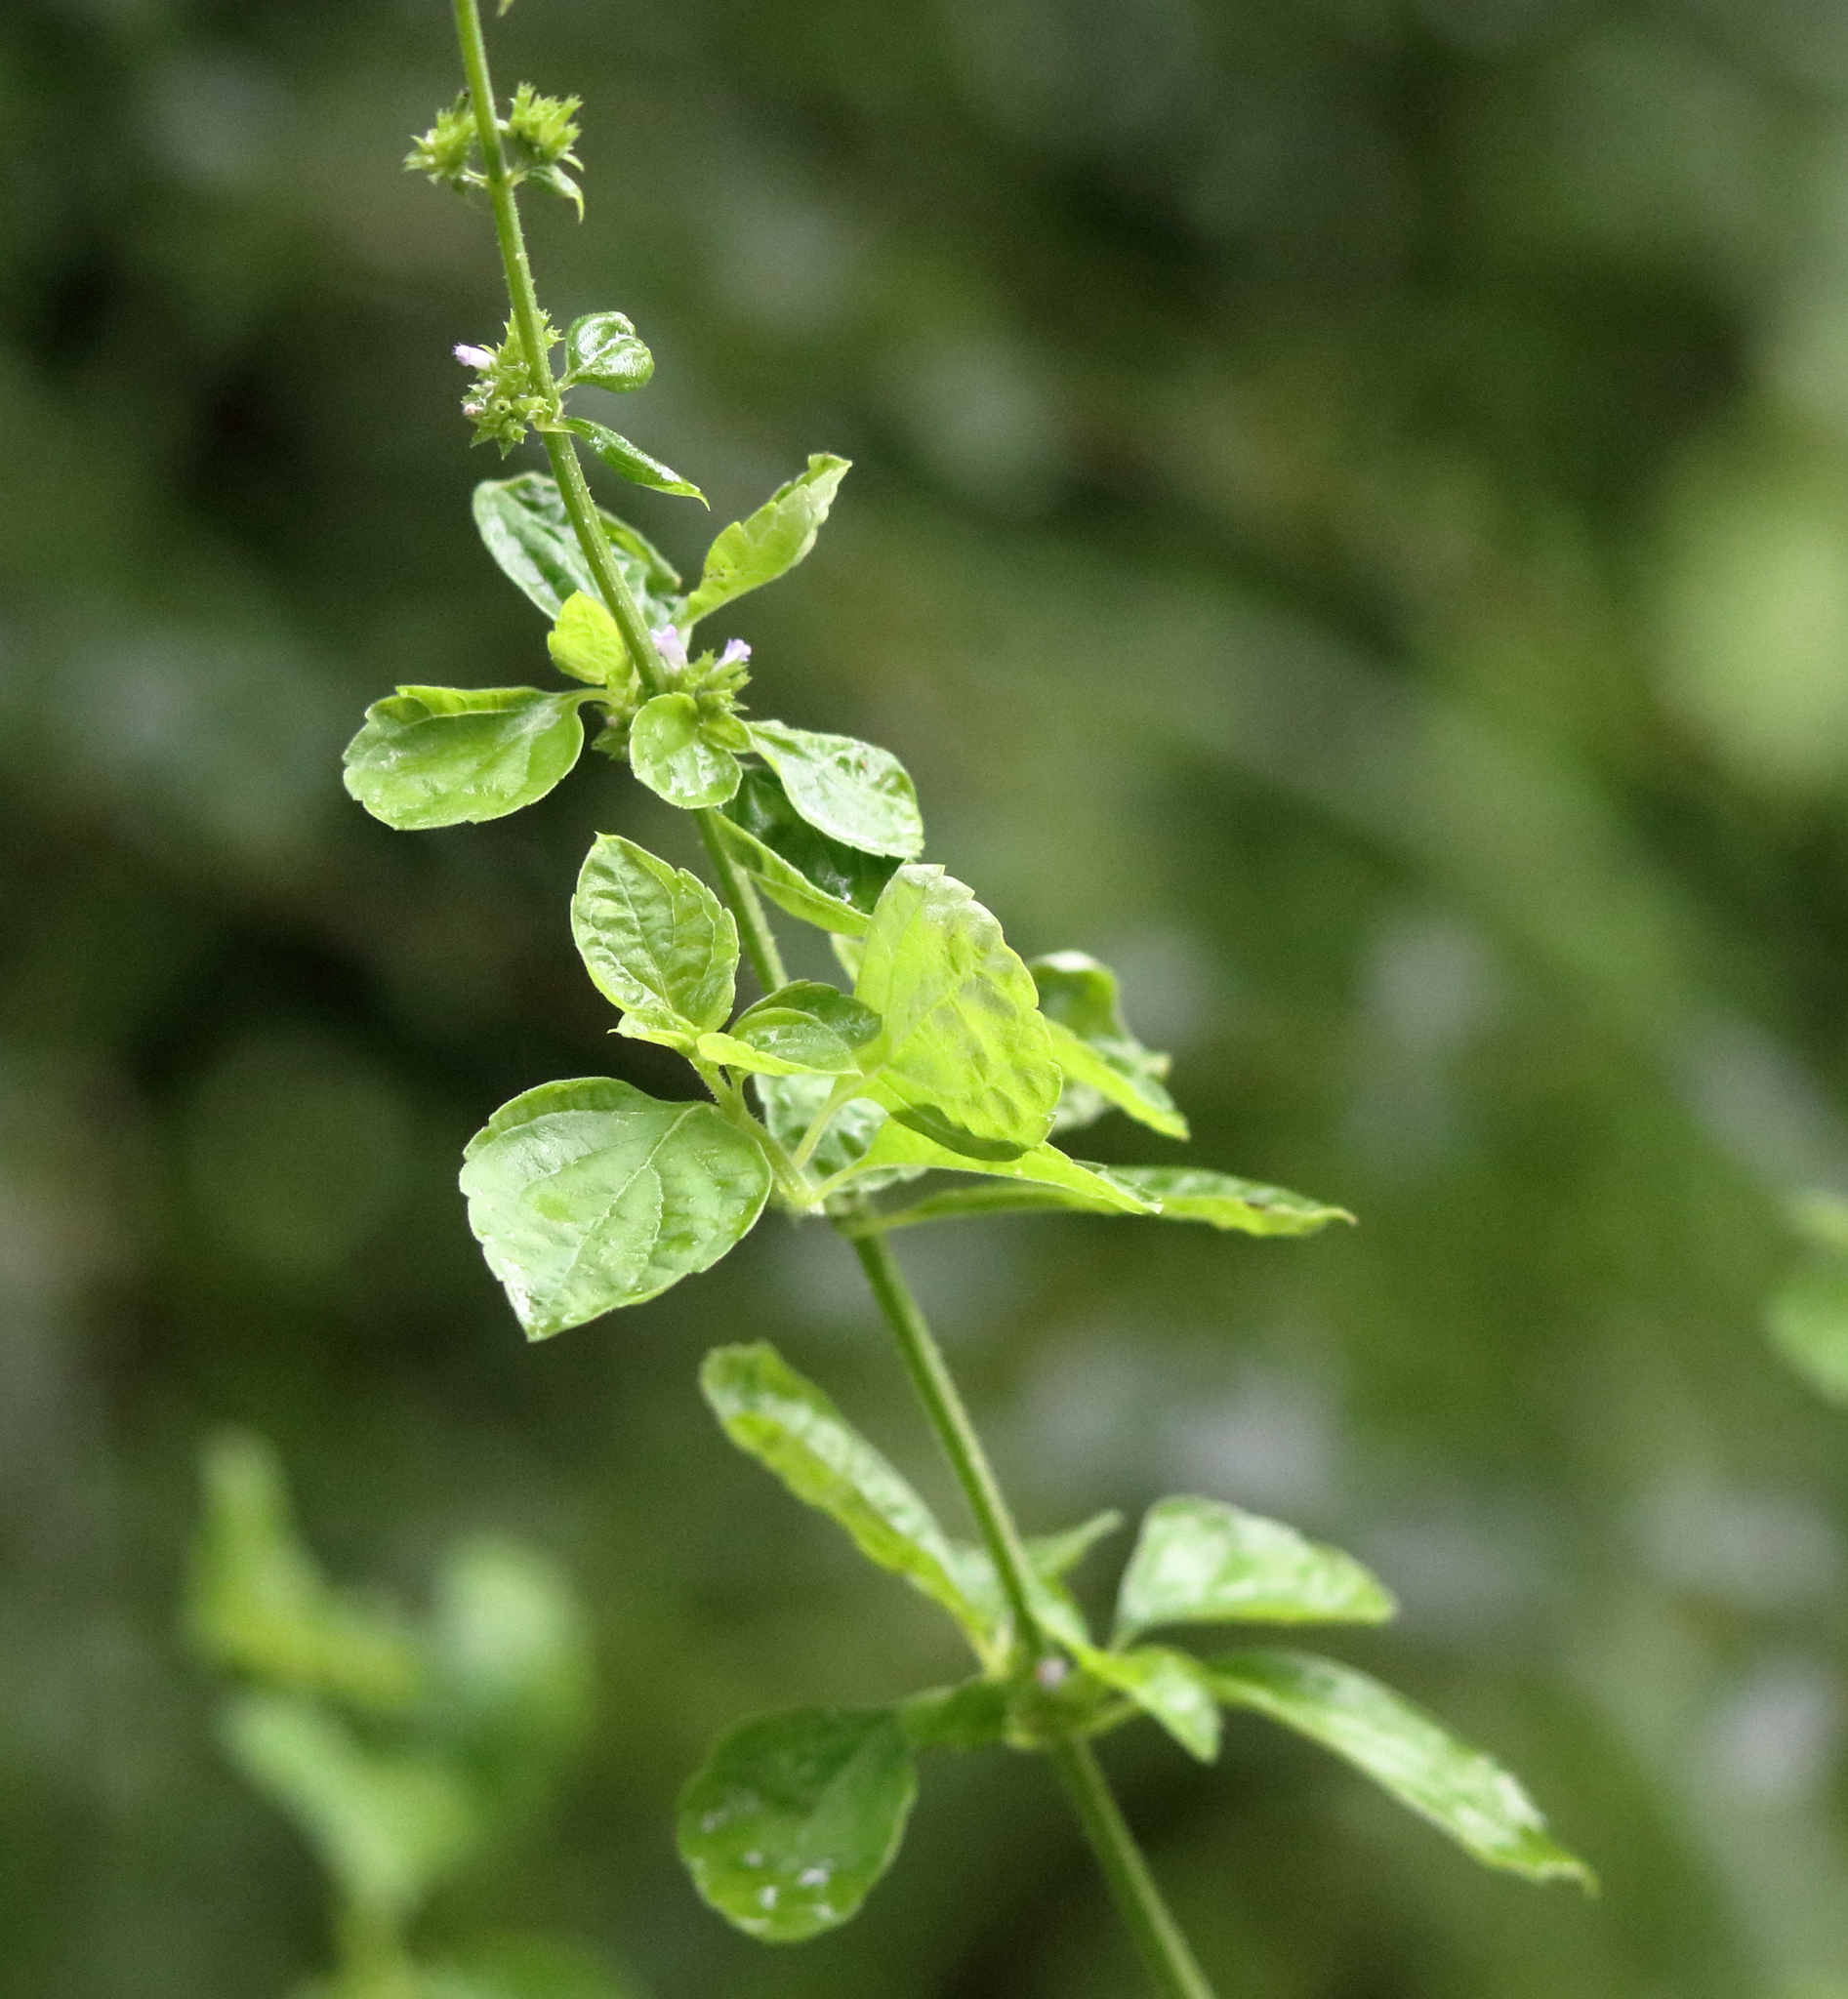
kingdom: Plantae
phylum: Tracheophyta
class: Magnoliopsida
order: Lamiales
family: Lamiaceae
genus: Cantinoa
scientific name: Cantinoa mutabilis
